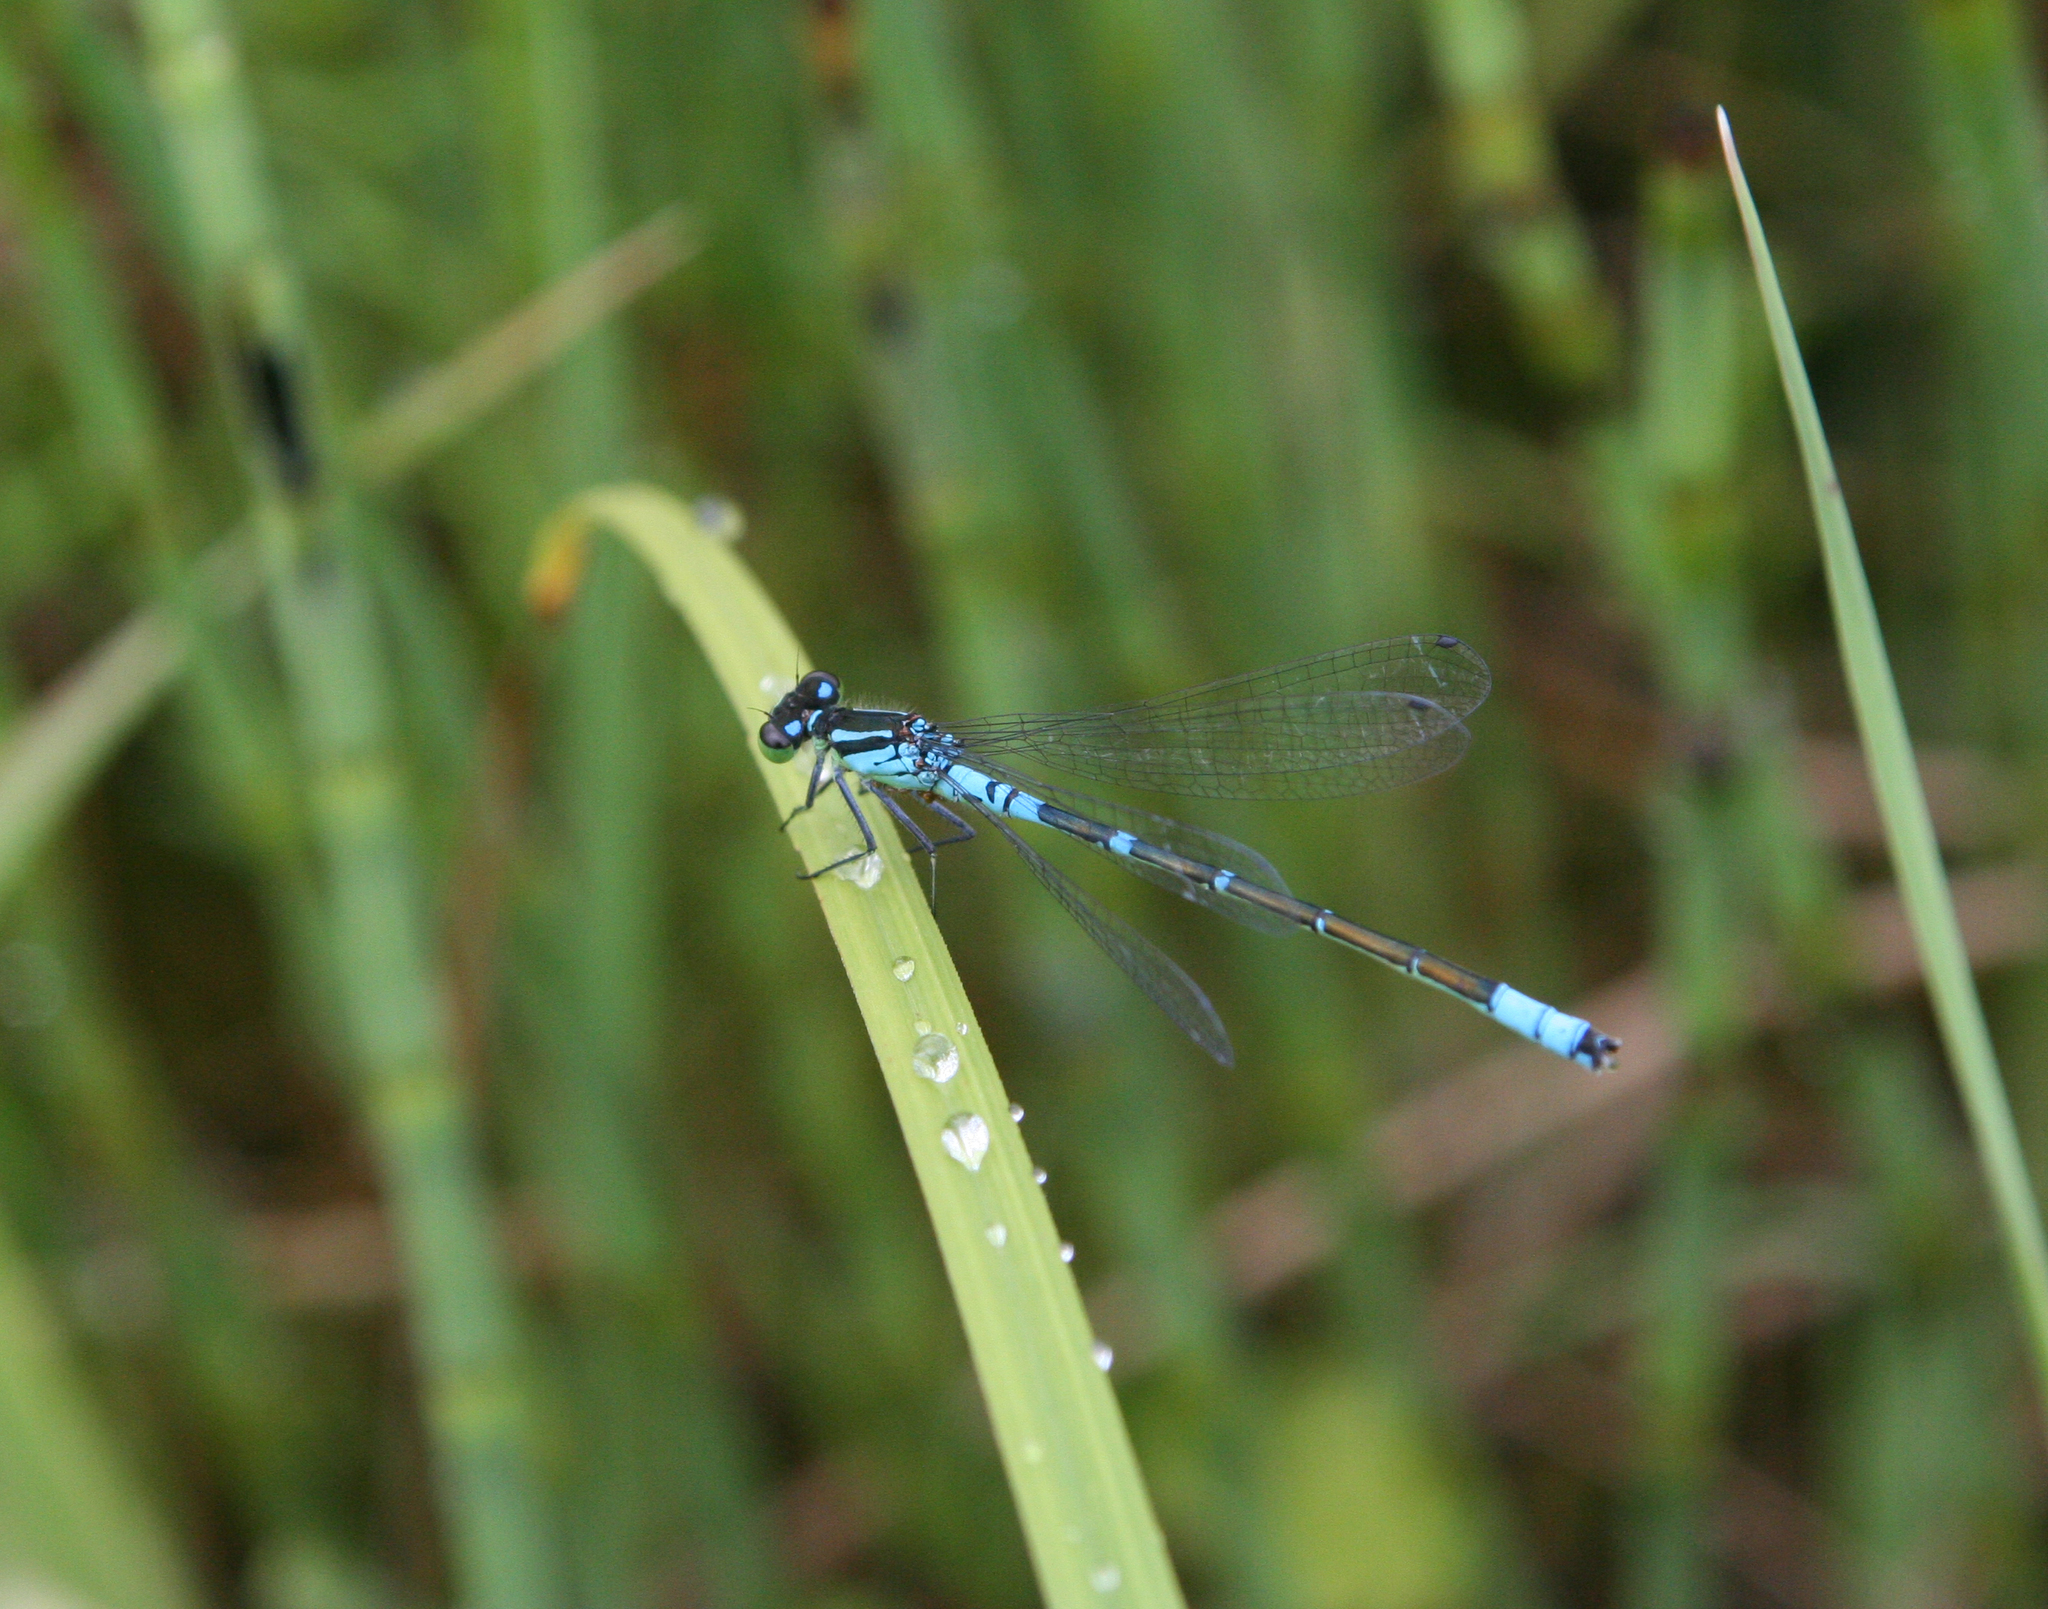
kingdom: Animalia
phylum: Arthropoda
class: Insecta
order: Odonata
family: Coenagrionidae
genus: Coenagrion
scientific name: Coenagrion lunulatum
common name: Irish damselfly
